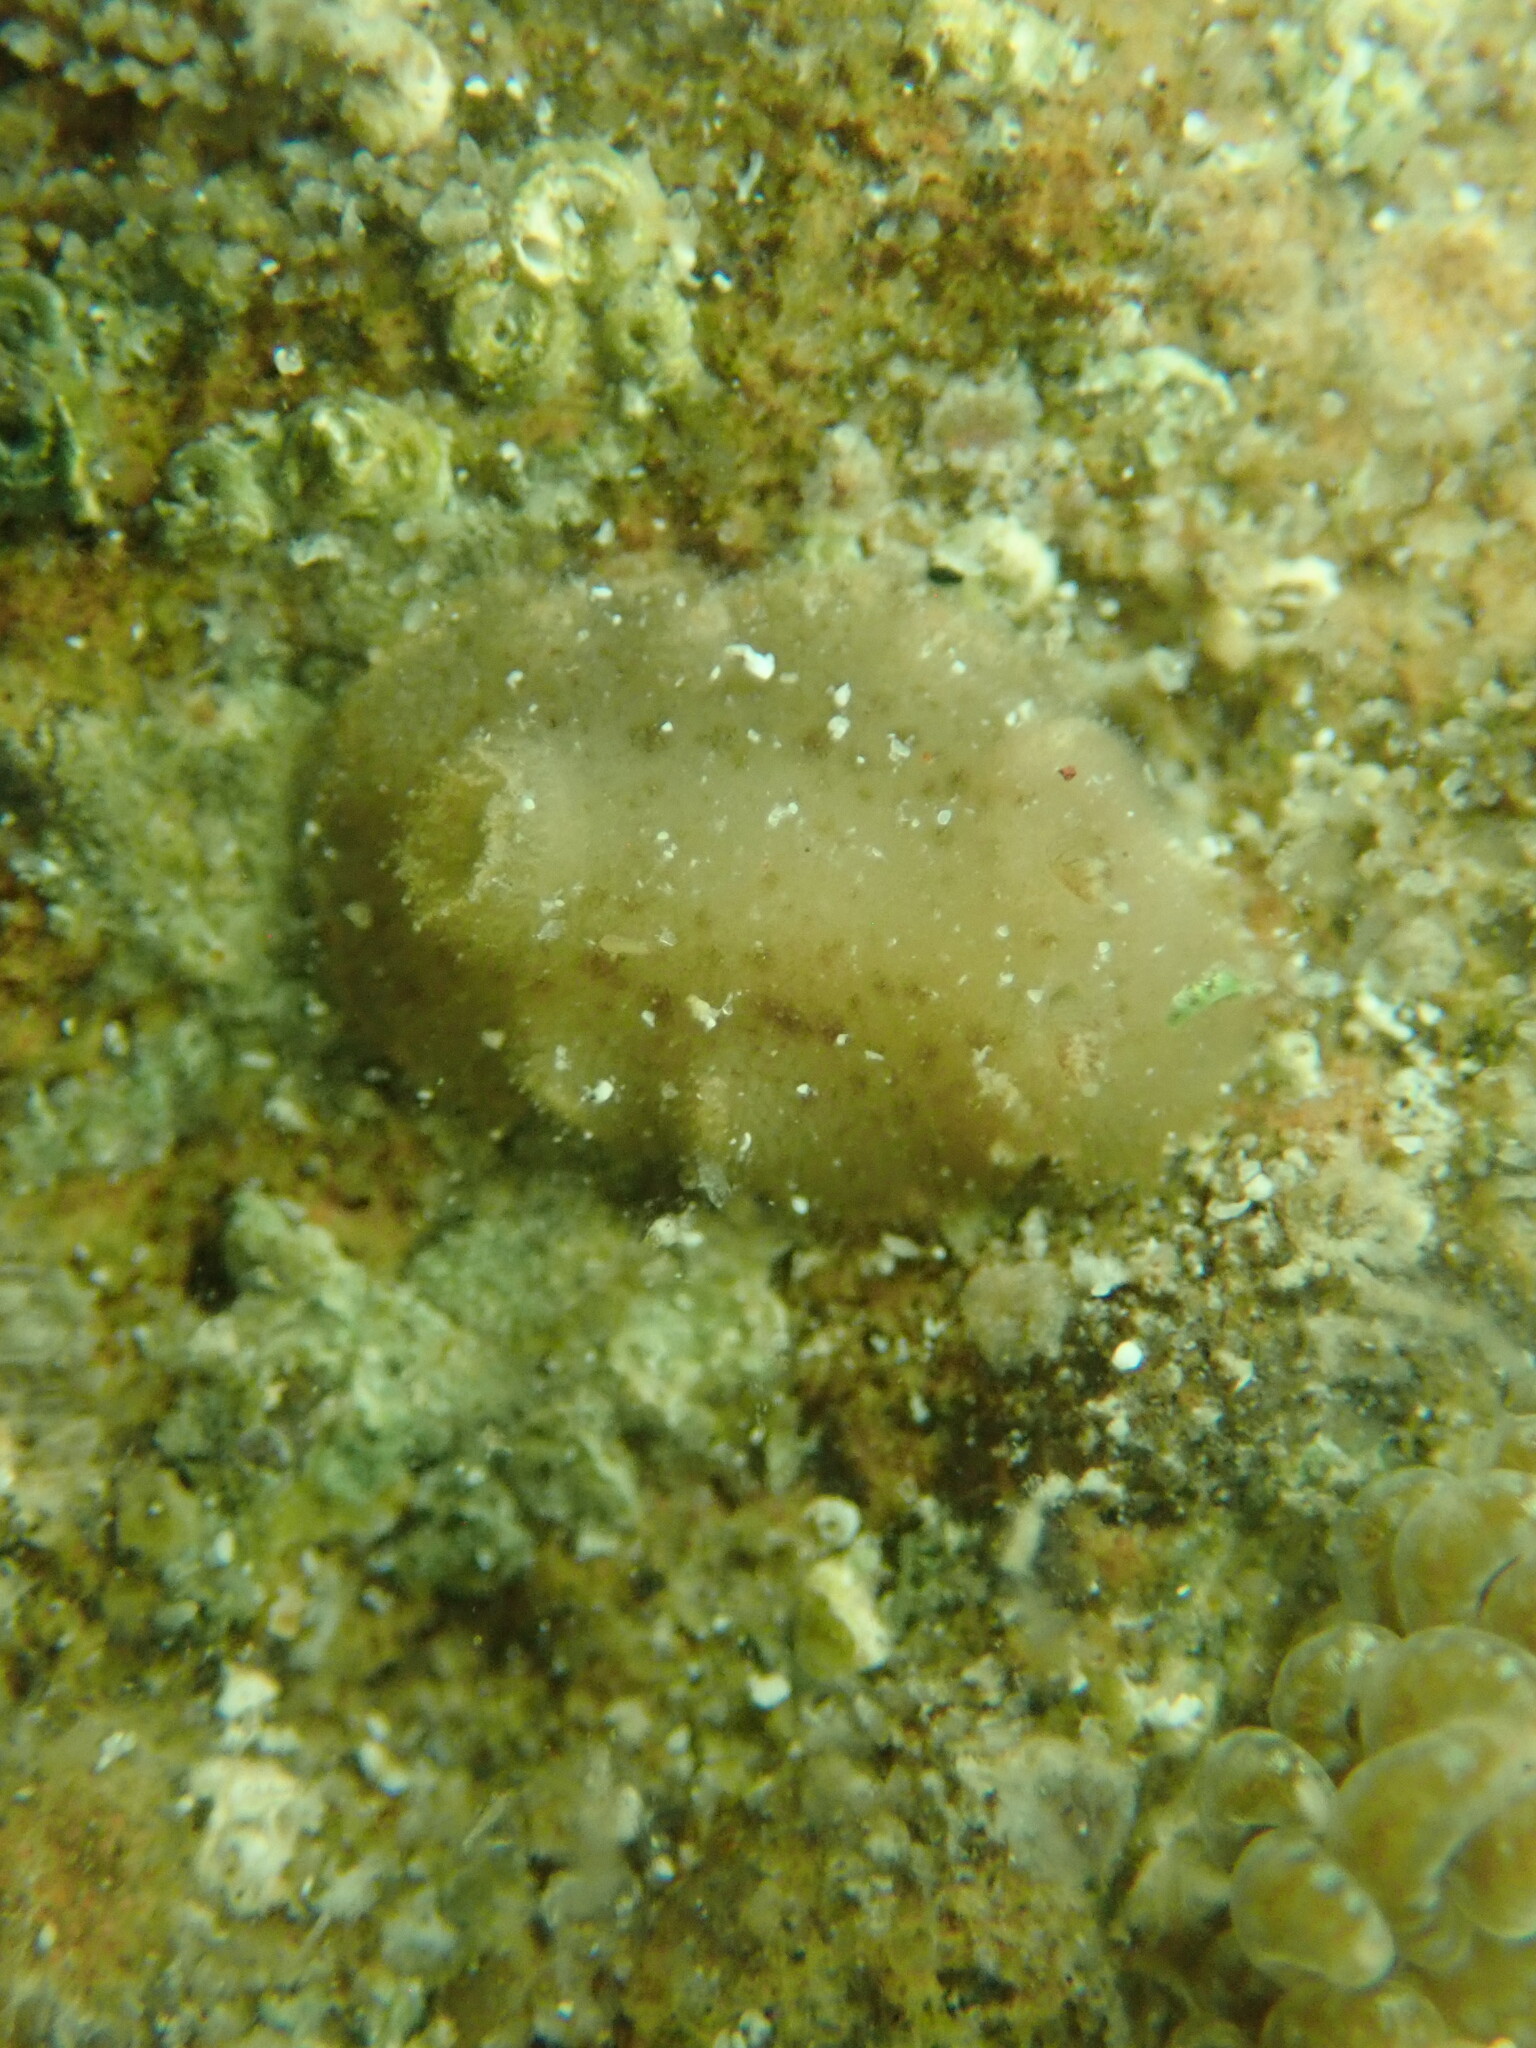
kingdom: Animalia
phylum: Mollusca
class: Gastropoda
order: Nudibranchia
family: Discodorididae
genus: Jorunna
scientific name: Jorunna osae
